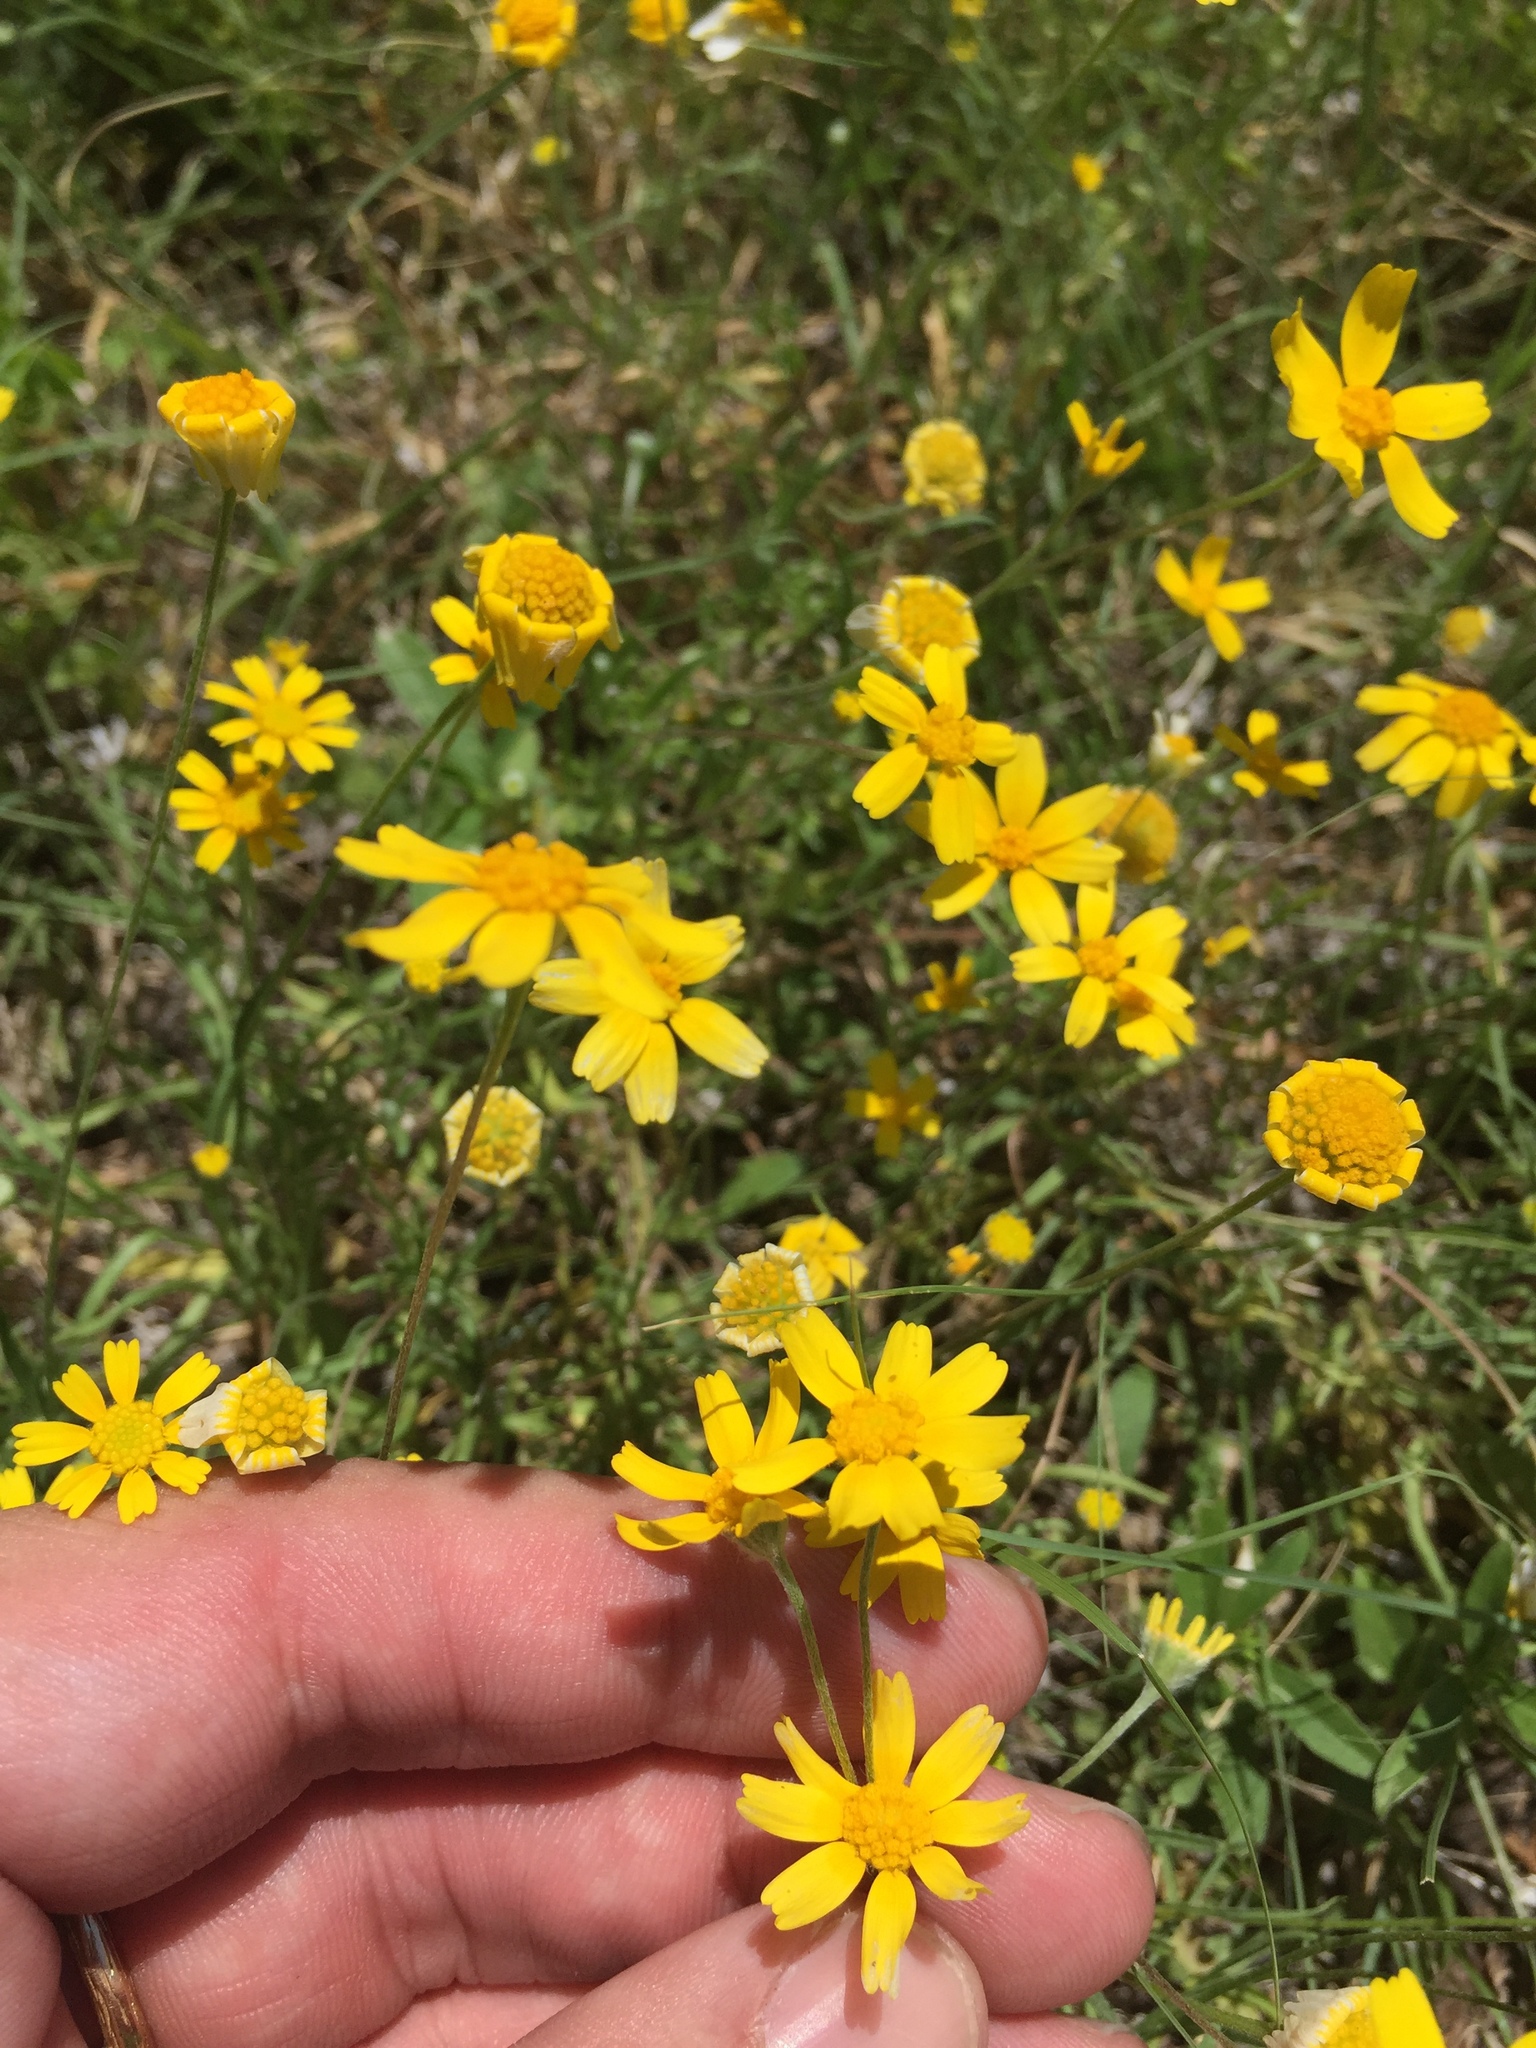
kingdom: Plantae
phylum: Tracheophyta
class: Magnoliopsida
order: Asterales
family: Asteraceae
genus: Tetraneuris
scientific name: Tetraneuris linearifolia
